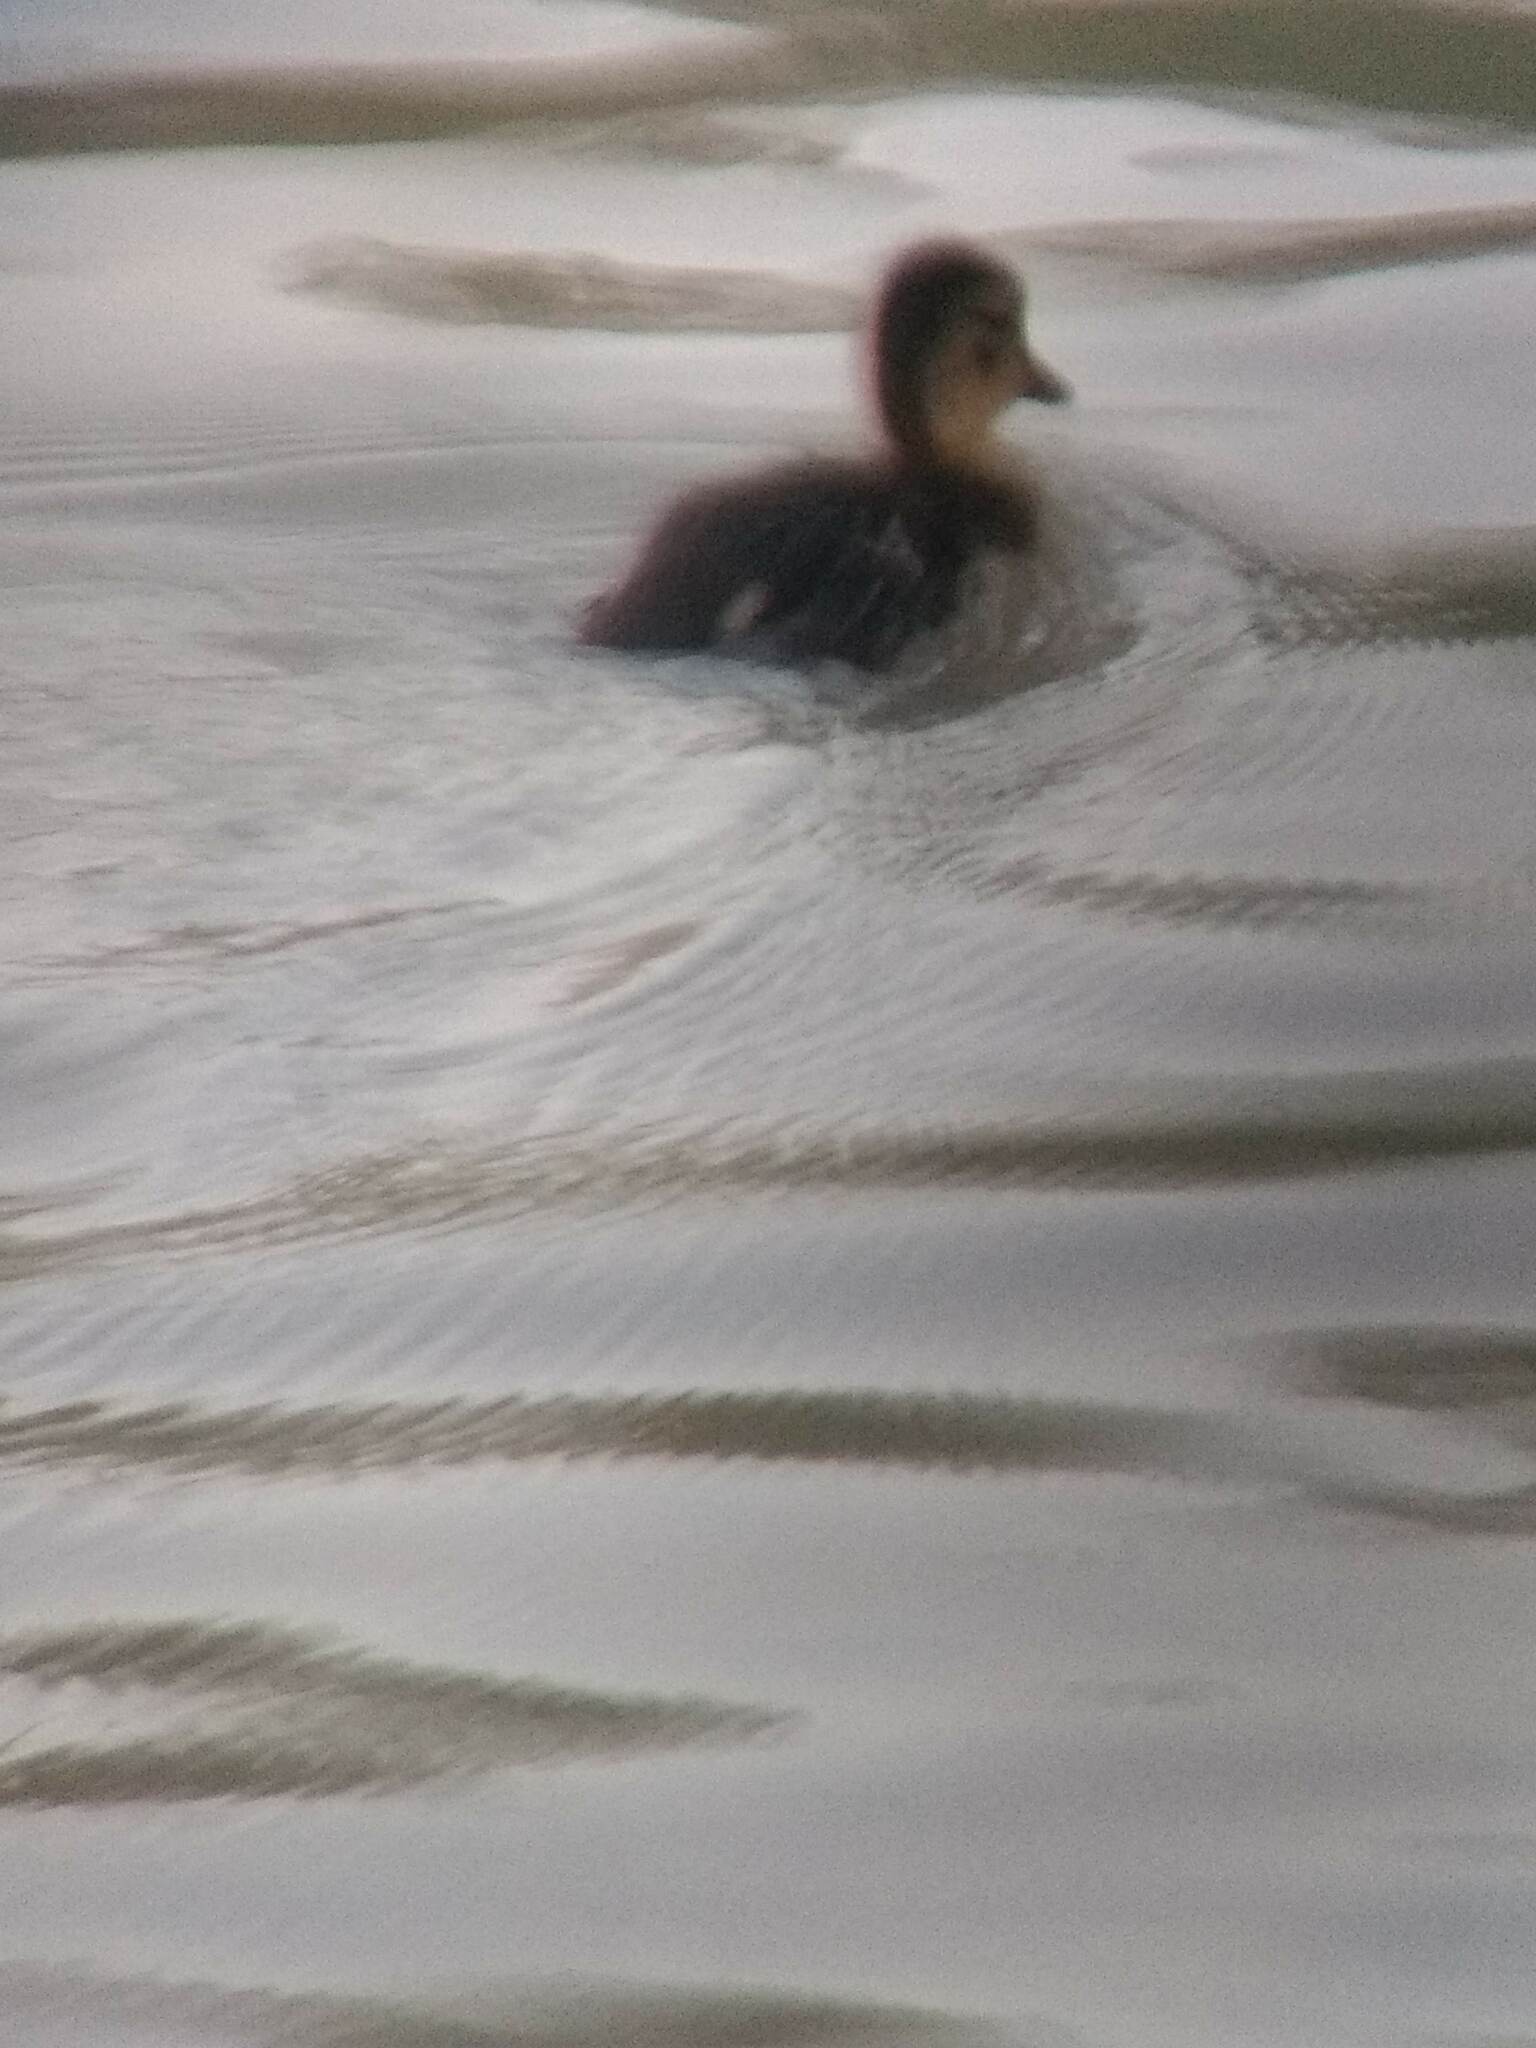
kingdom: Animalia
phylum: Chordata
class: Aves
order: Anseriformes
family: Anatidae
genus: Anas
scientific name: Anas platyrhynchos
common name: Mallard
